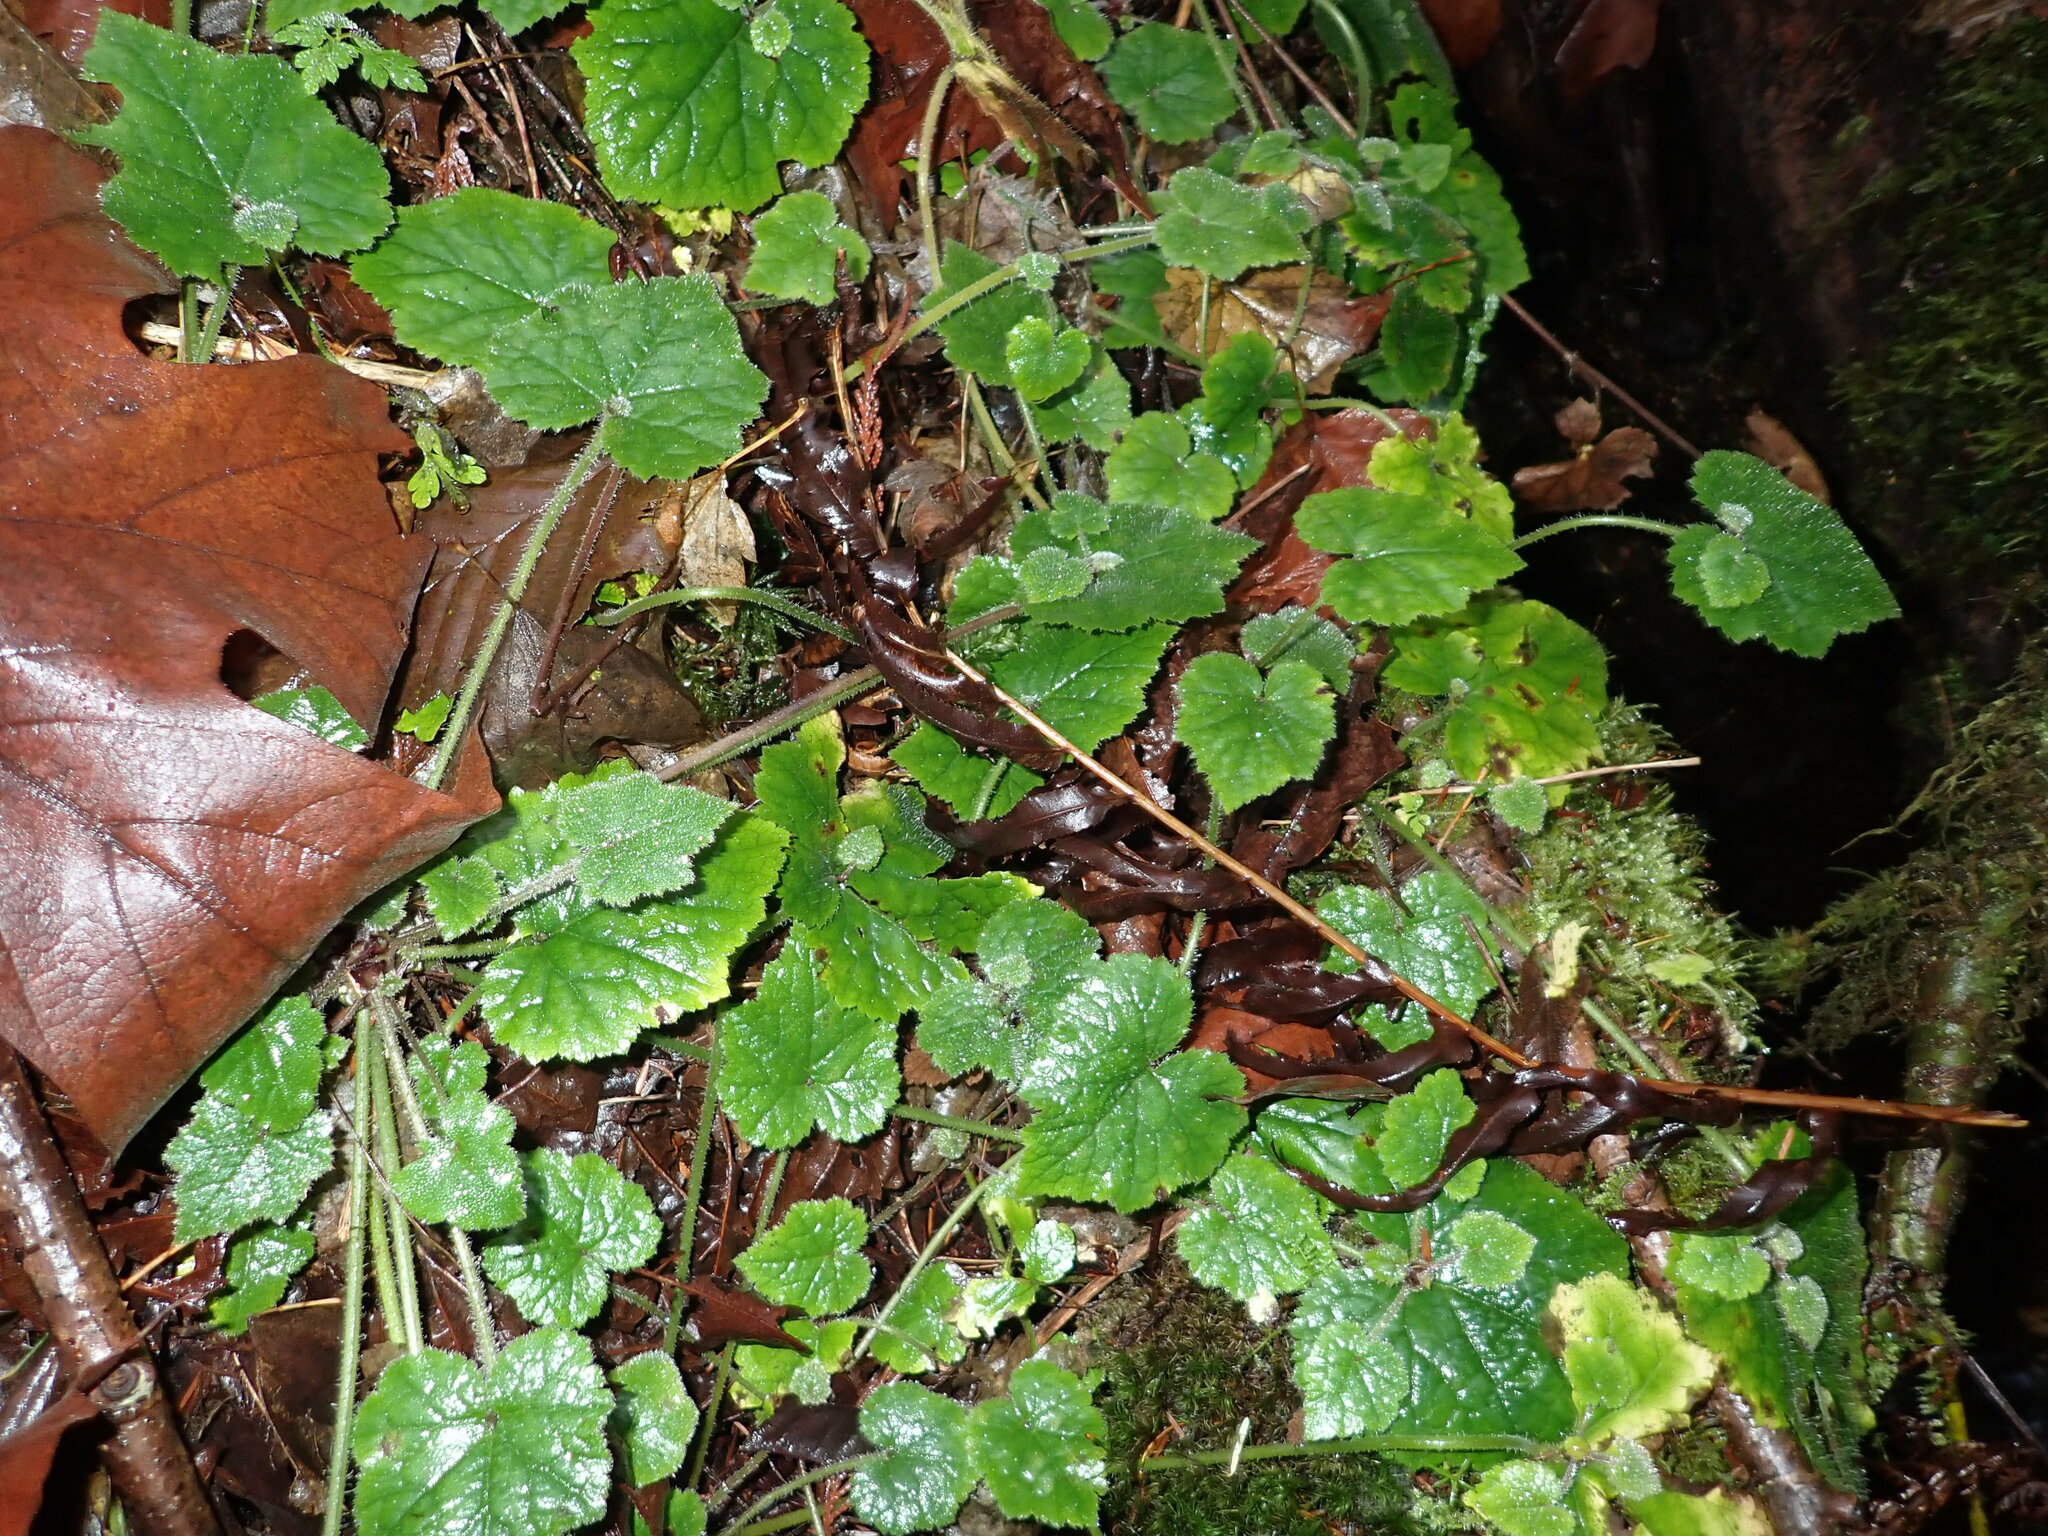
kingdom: Plantae
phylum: Tracheophyta
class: Magnoliopsida
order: Saxifragales
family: Saxifragaceae
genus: Tolmiea
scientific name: Tolmiea menziesii
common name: Pick-a-back-plant
